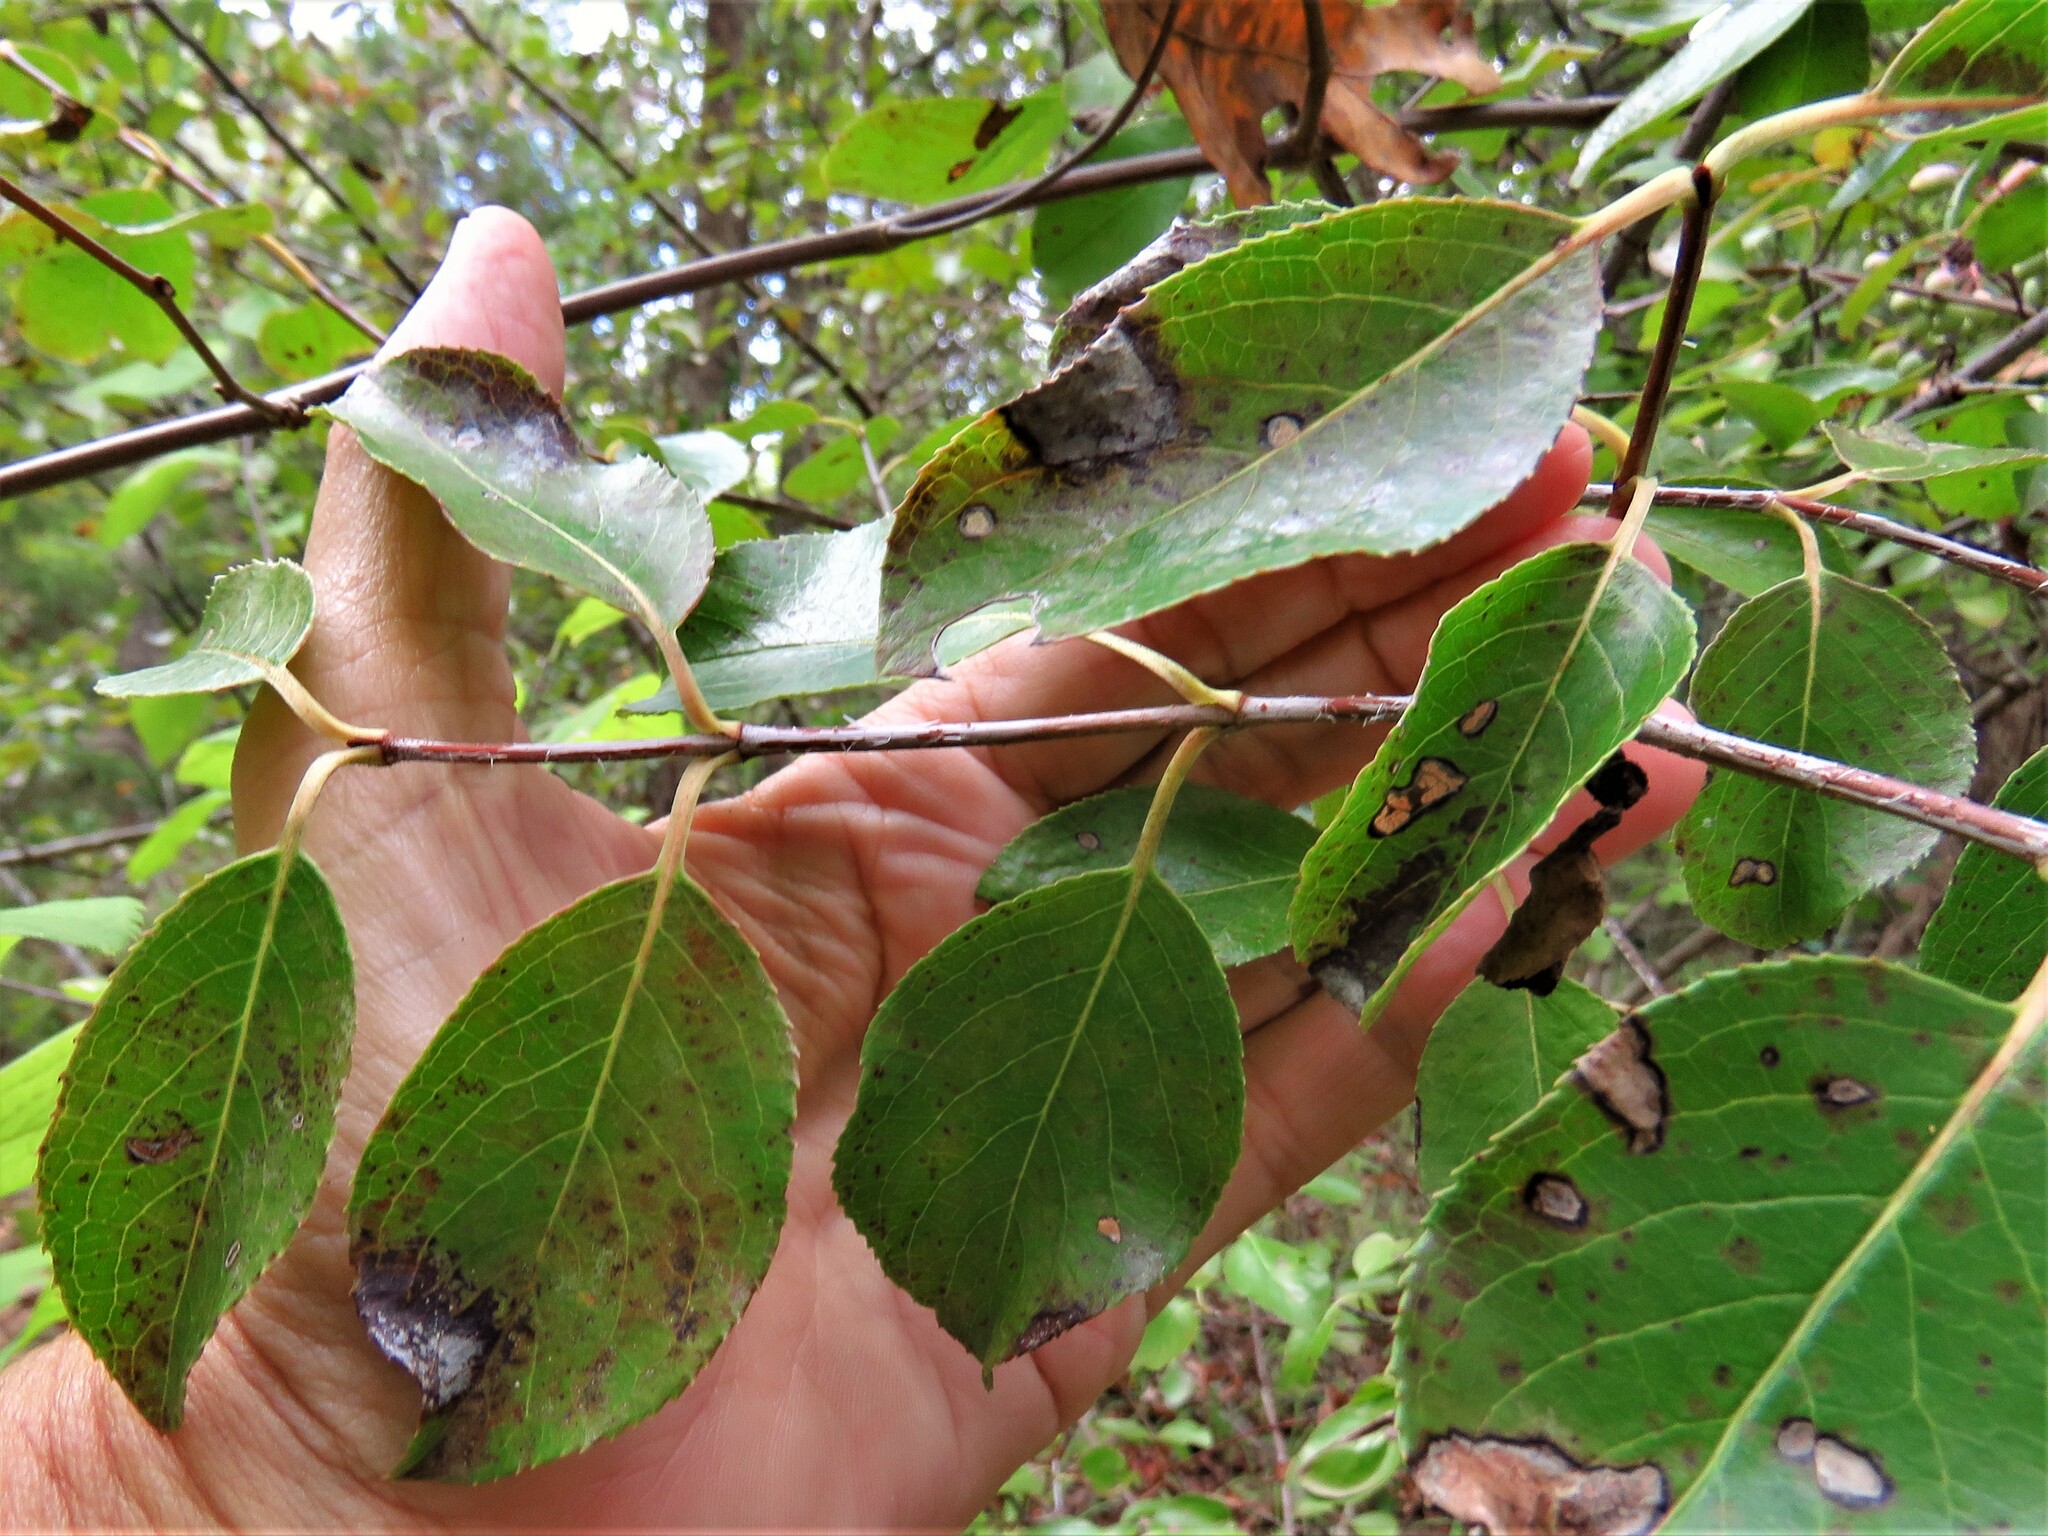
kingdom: Plantae
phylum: Tracheophyta
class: Magnoliopsida
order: Dipsacales
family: Viburnaceae
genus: Viburnum
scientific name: Viburnum rufidulum
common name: Blue haw
